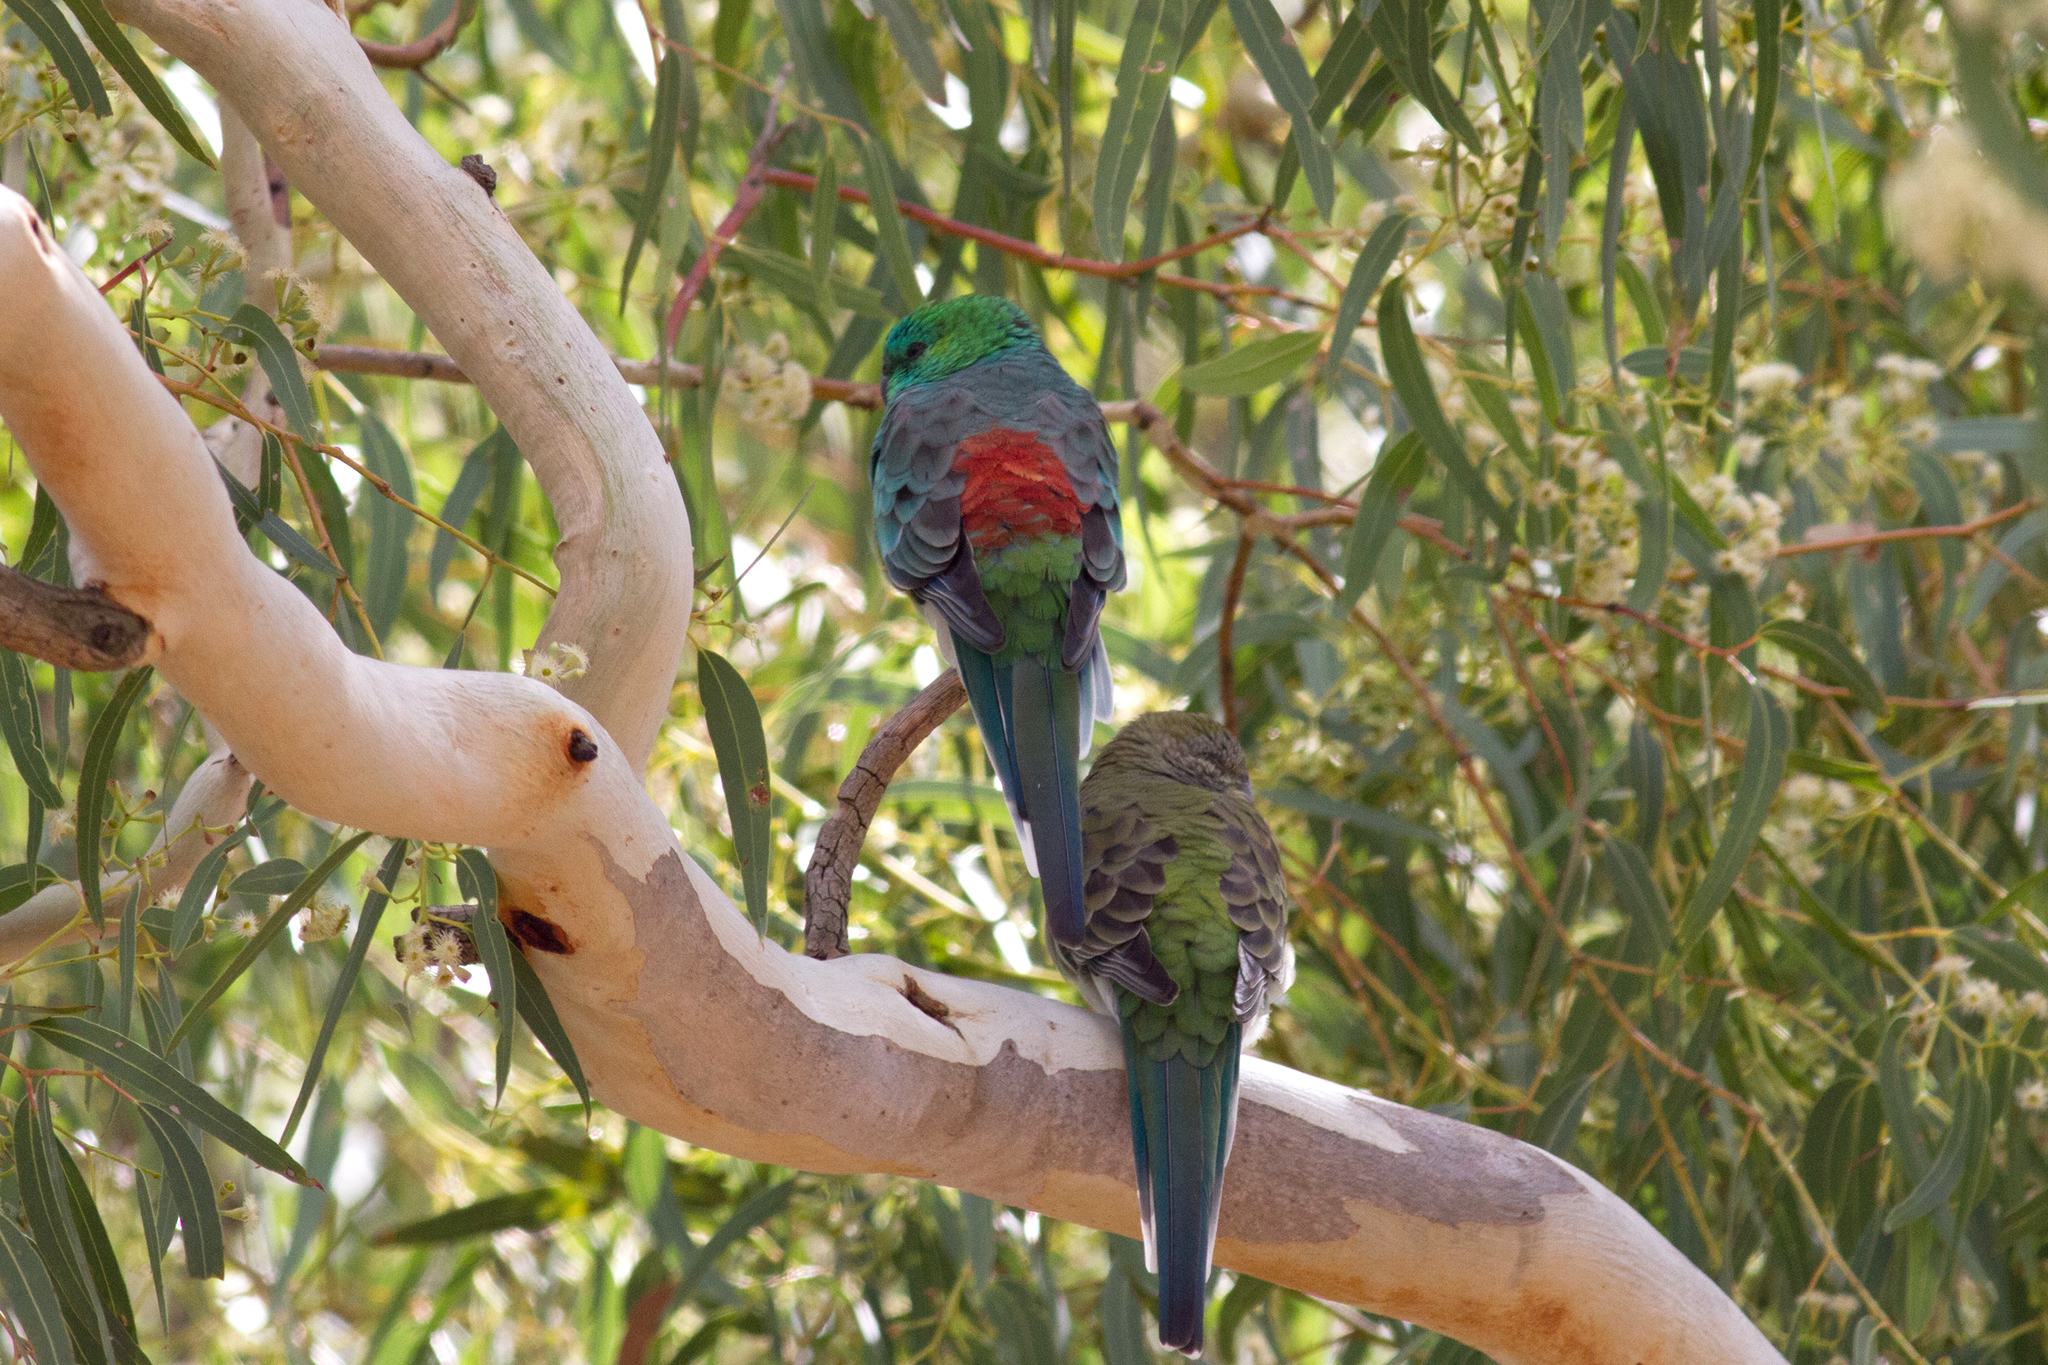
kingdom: Animalia
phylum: Chordata
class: Aves
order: Psittaciformes
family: Psittacidae
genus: Psephotus
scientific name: Psephotus haematonotus
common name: Red-rumped parrot
